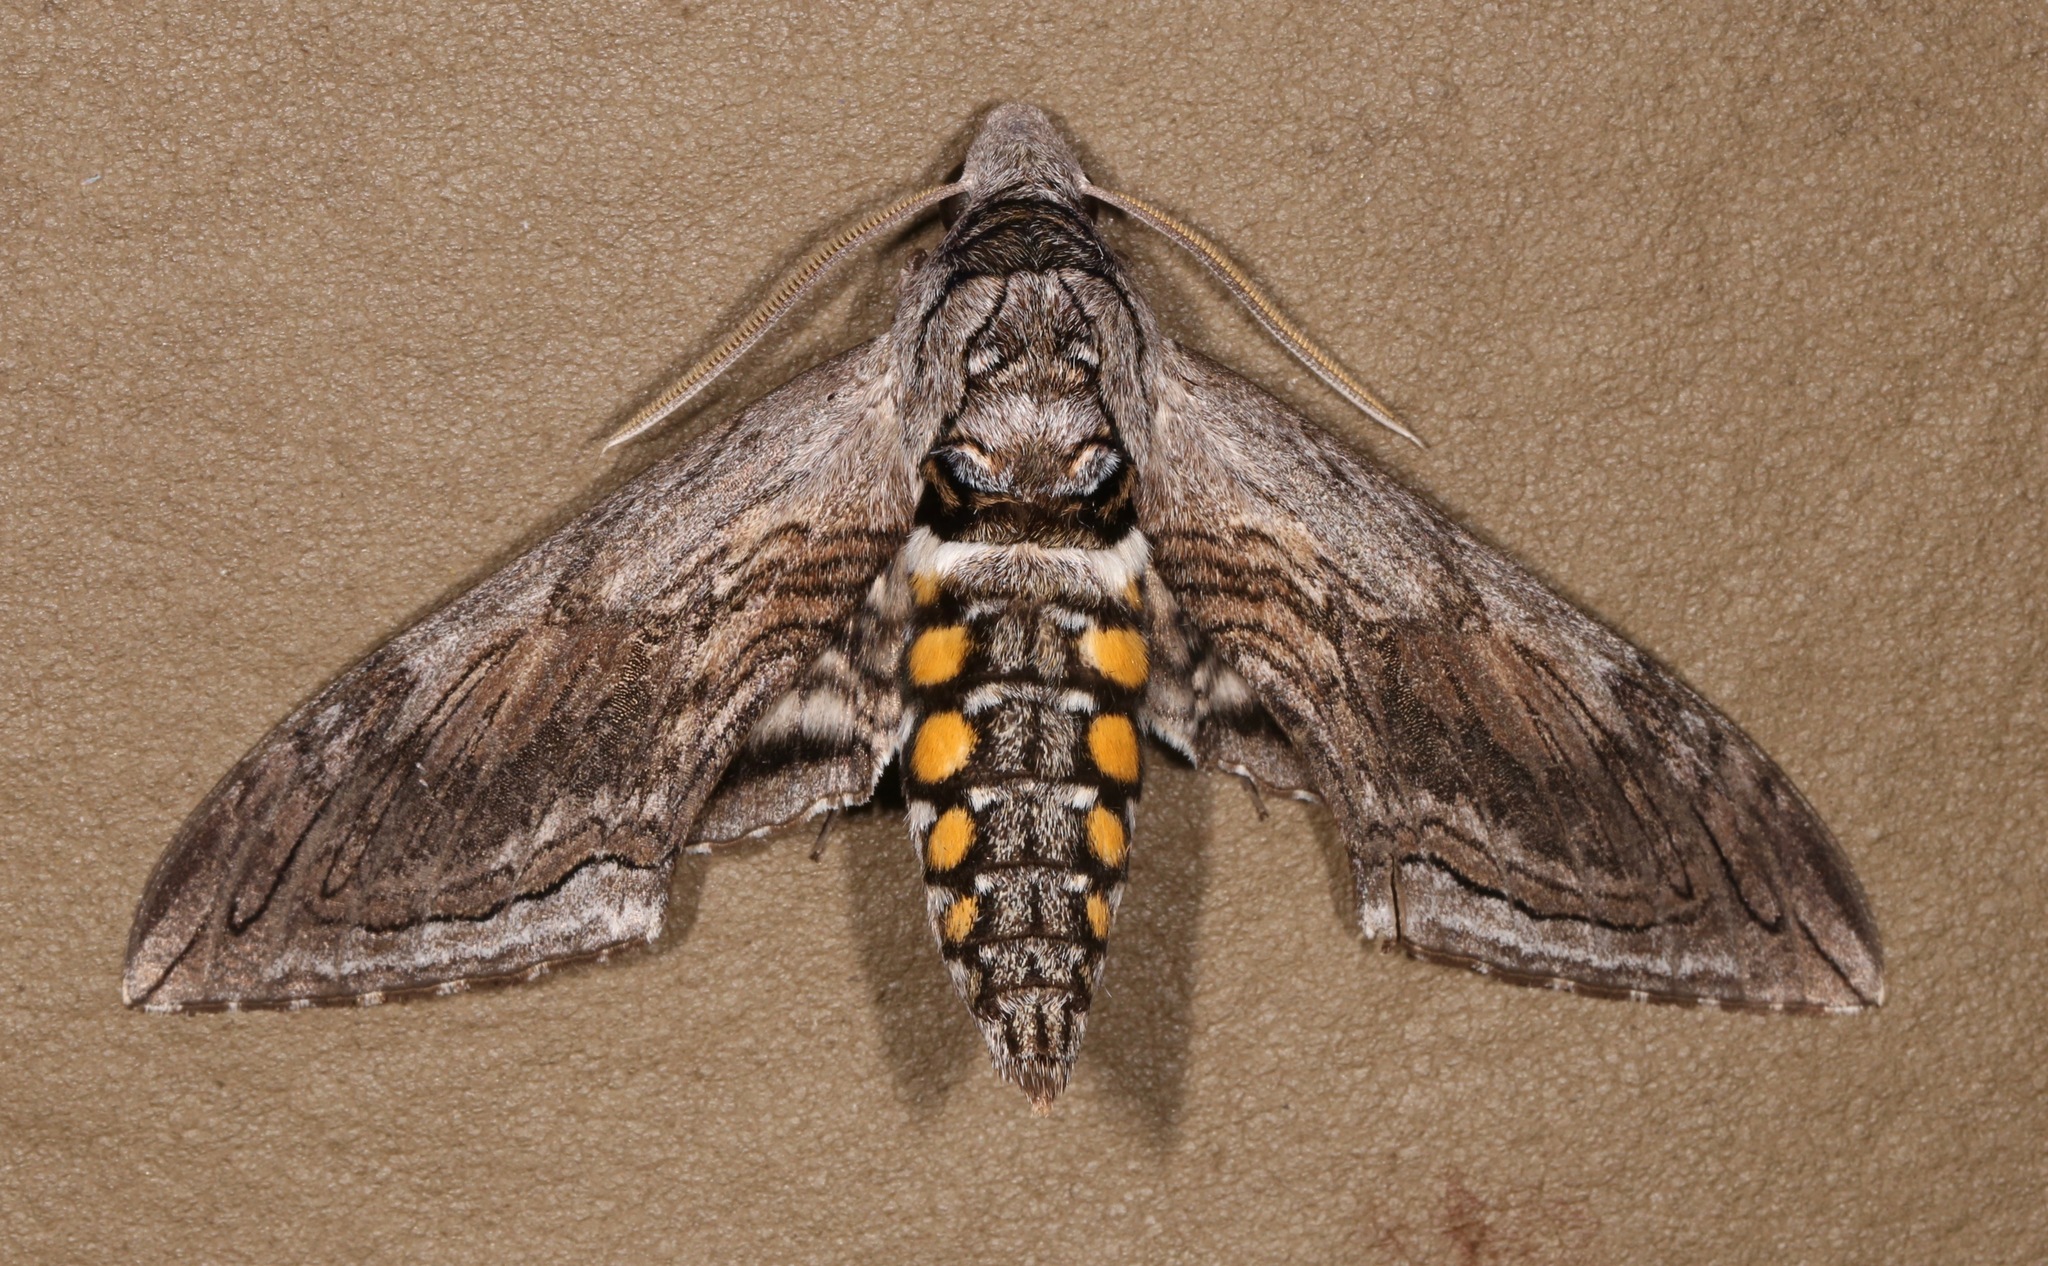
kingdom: Animalia
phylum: Arthropoda
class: Insecta
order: Lepidoptera
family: Sphingidae
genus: Manduca
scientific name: Manduca quinquemaculatus
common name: Five-spotted hawk-moth
